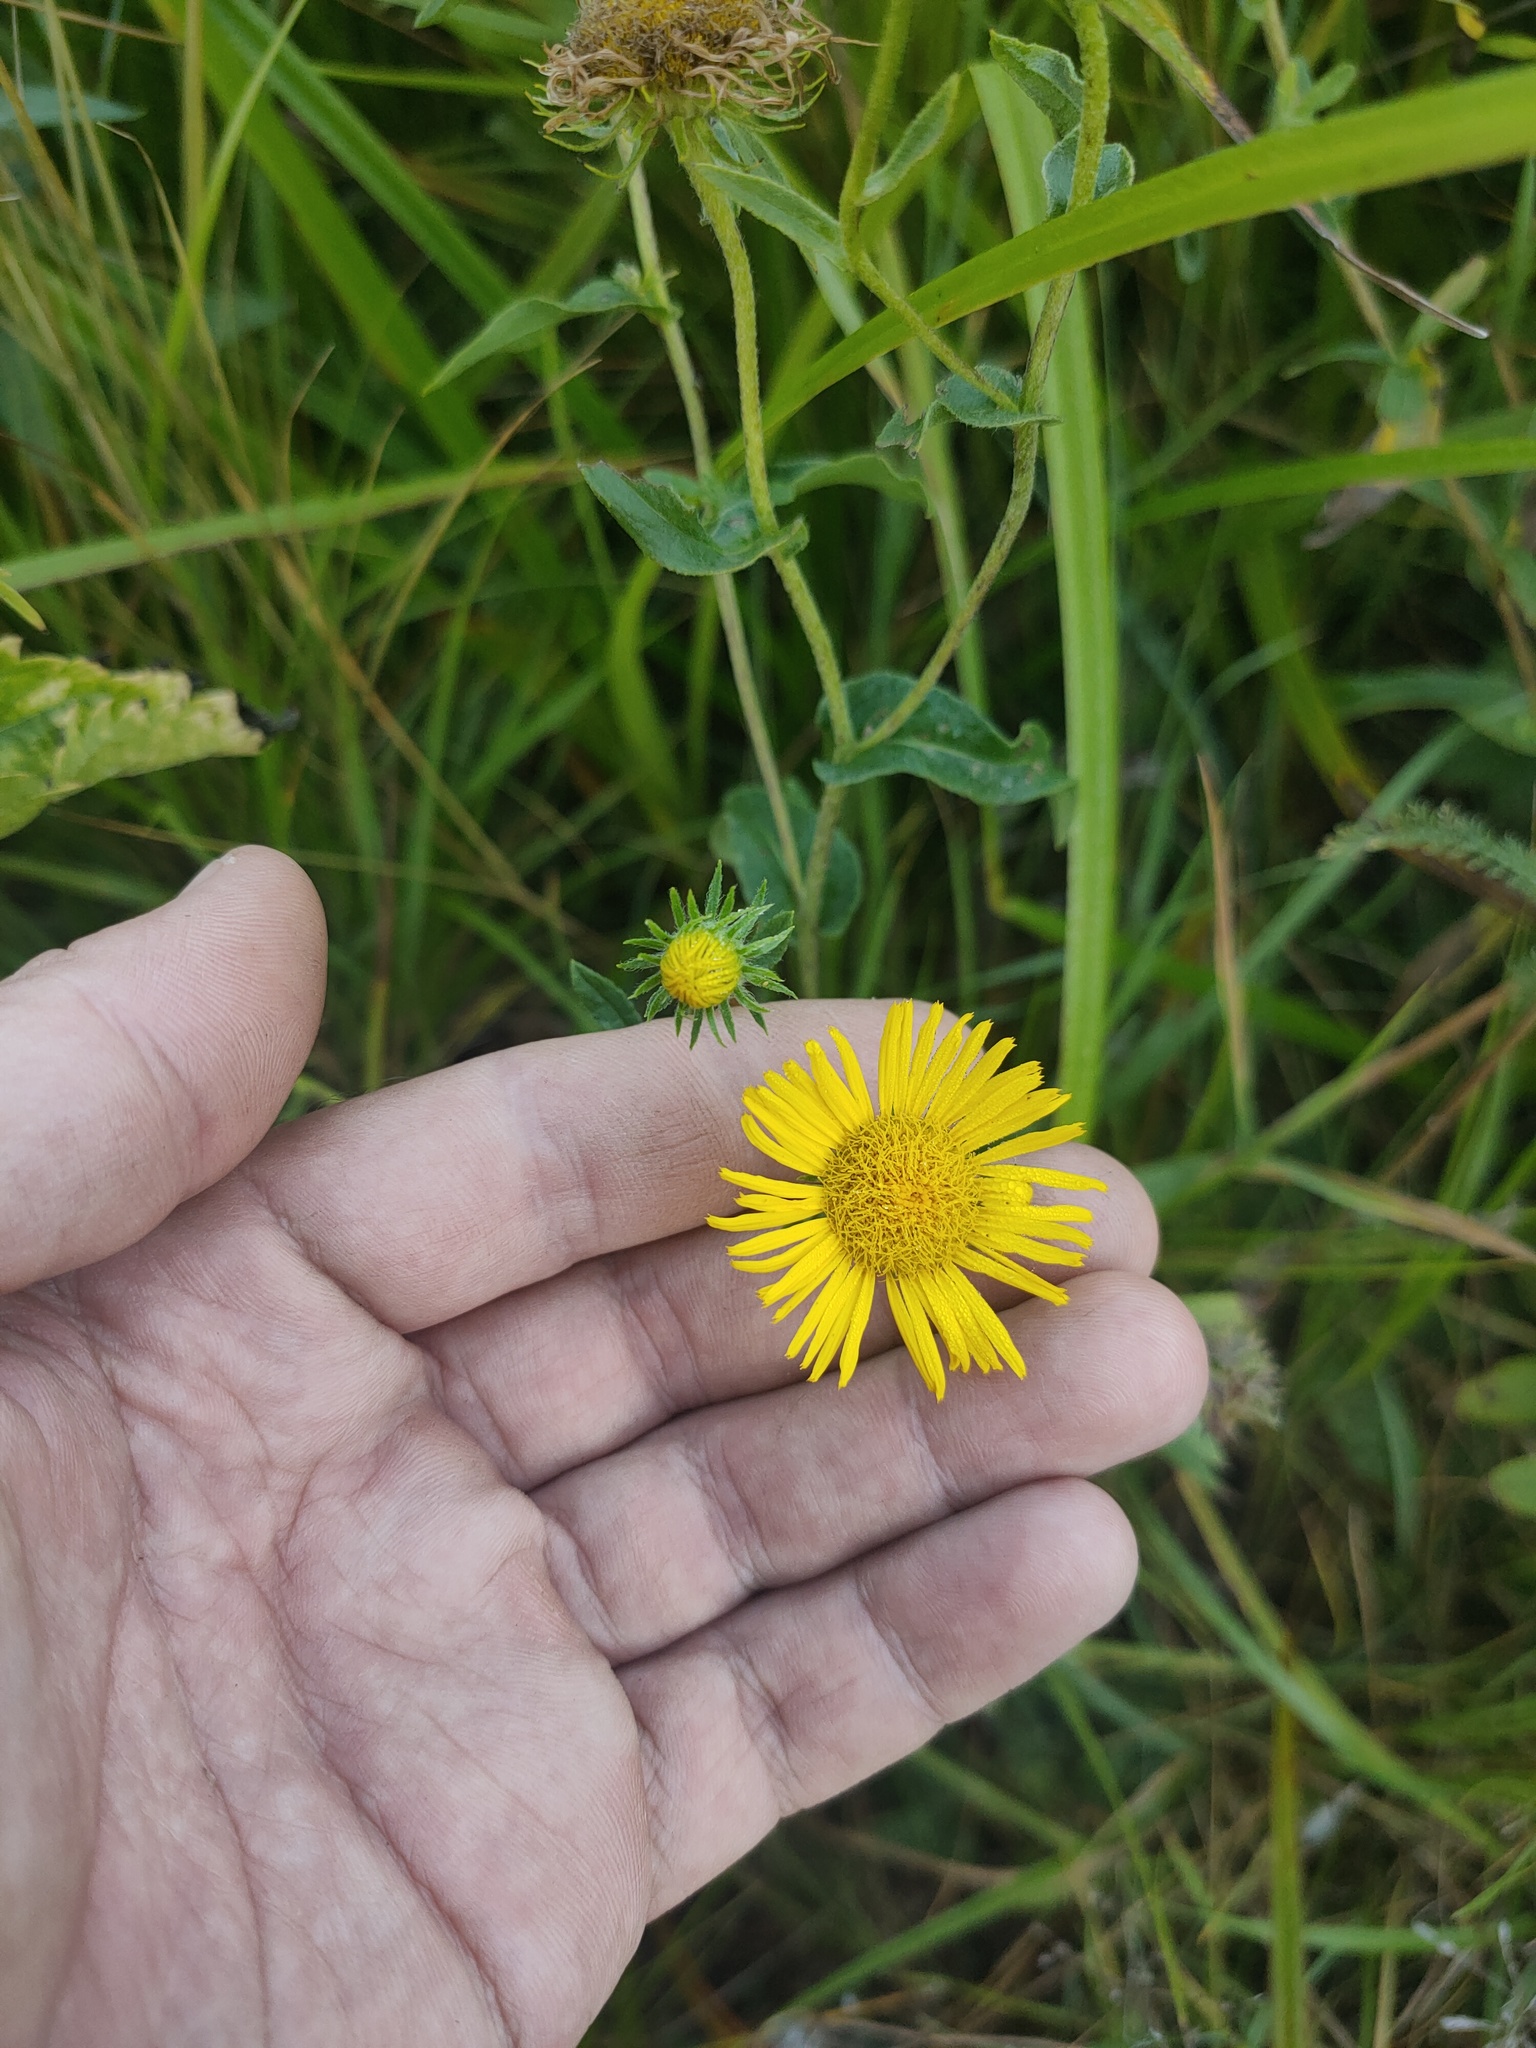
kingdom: Plantae
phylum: Tracheophyta
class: Magnoliopsida
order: Asterales
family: Asteraceae
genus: Pentanema
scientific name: Pentanema britannicum
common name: British elecampane
